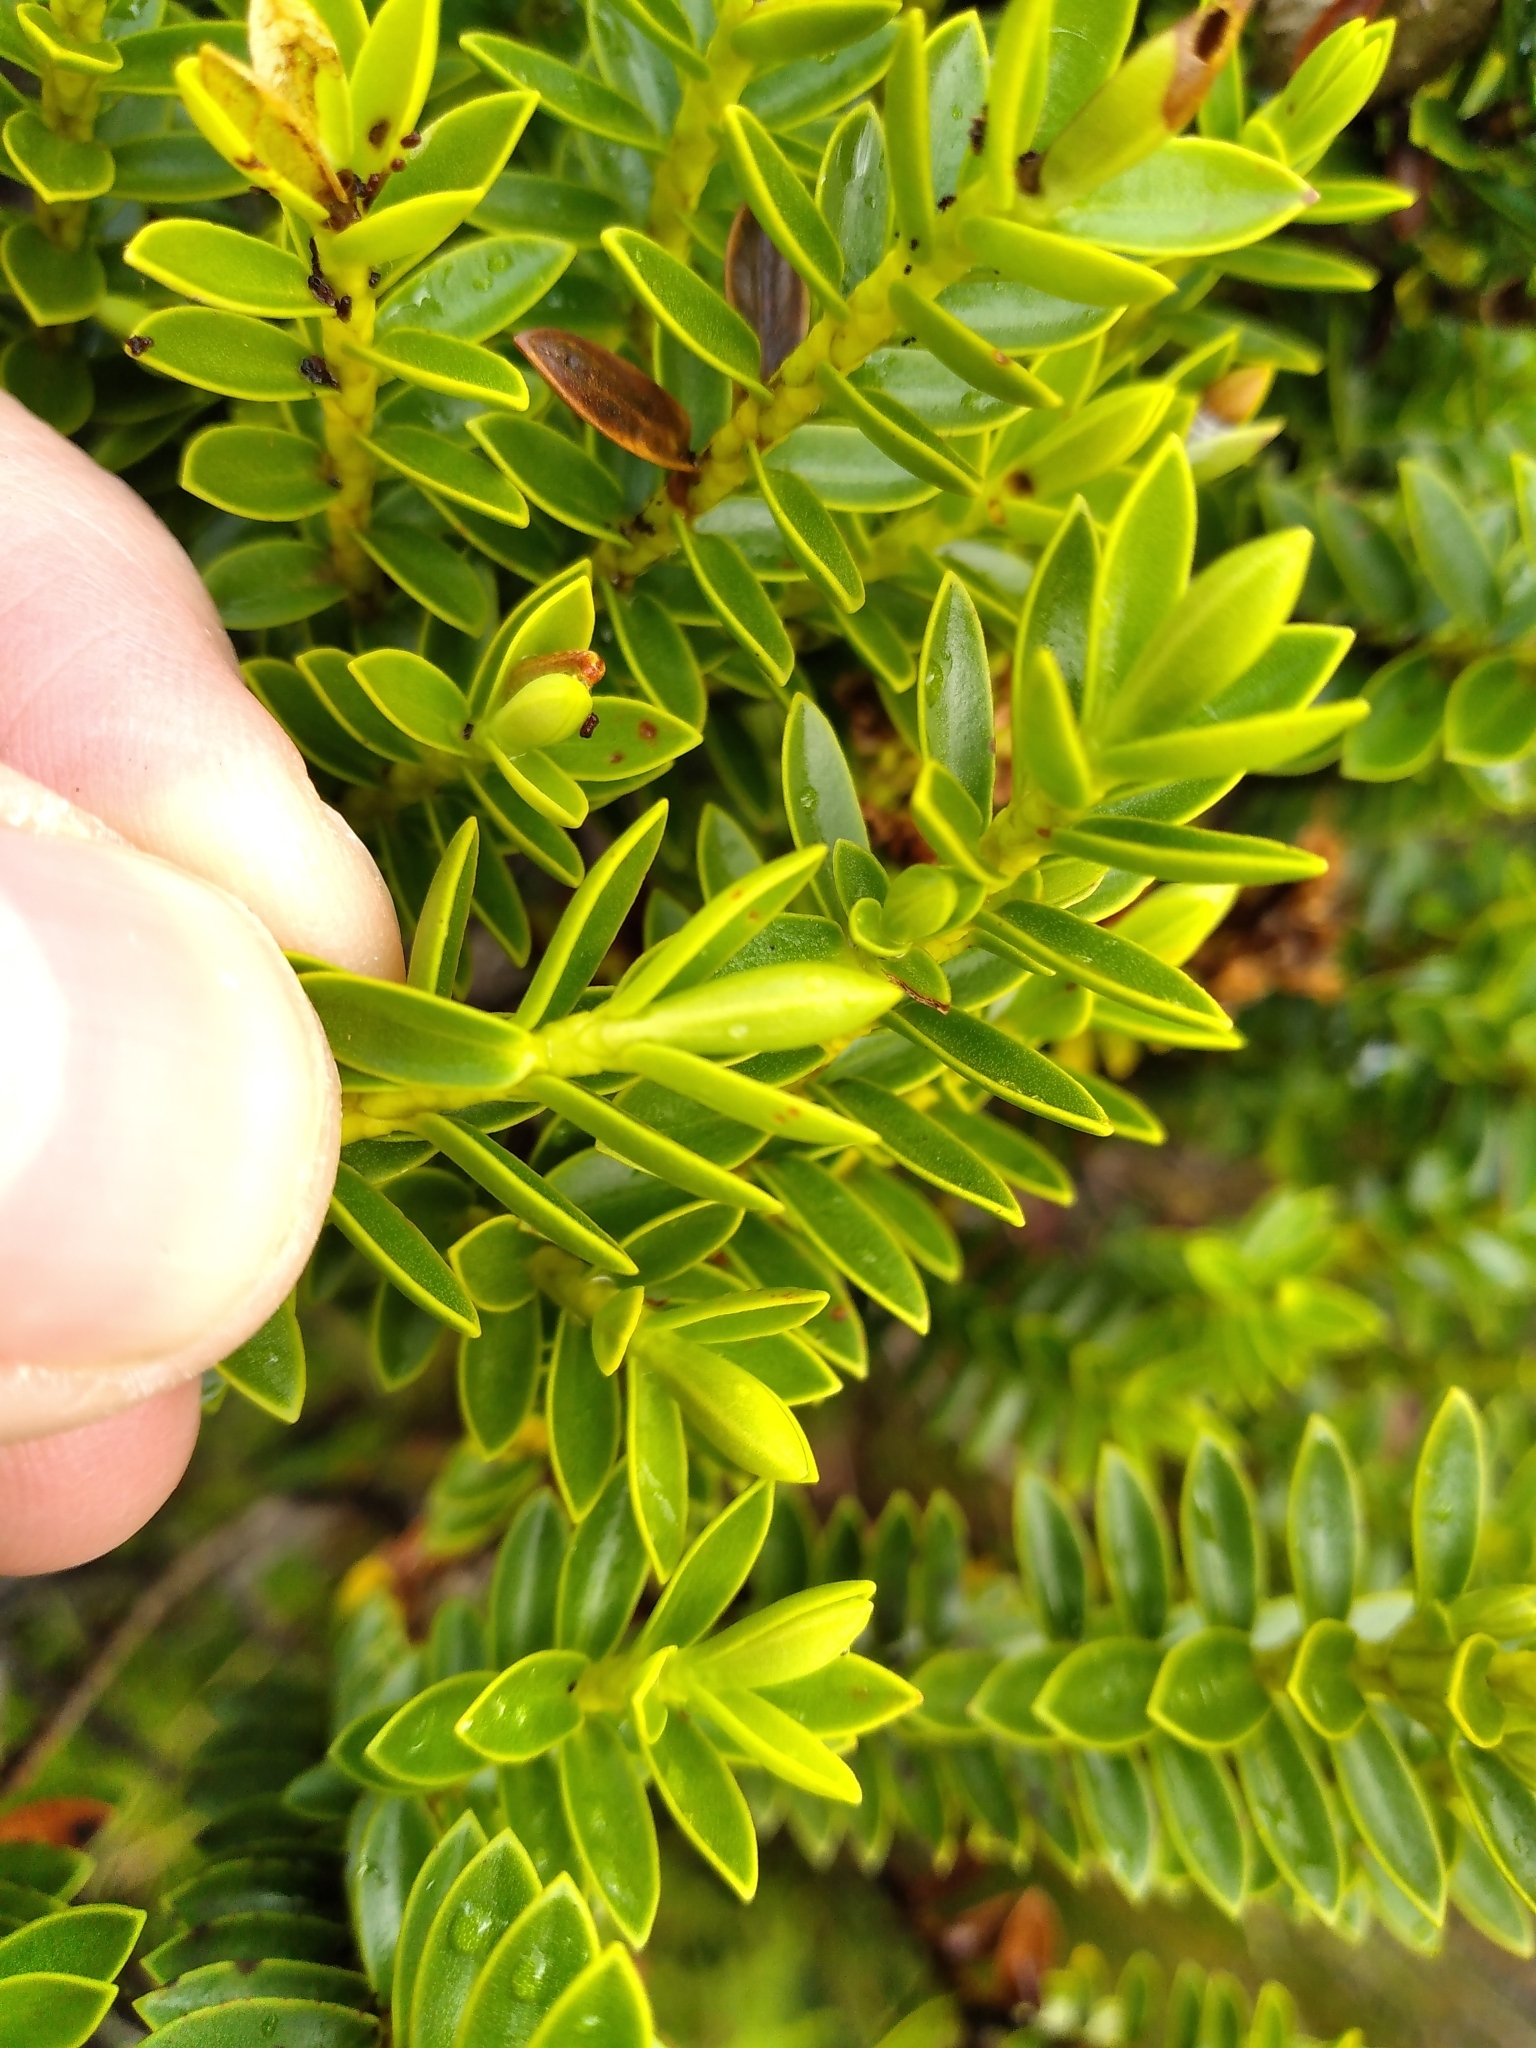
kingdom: Plantae
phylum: Tracheophyta
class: Magnoliopsida
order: Lamiales
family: Plantaginaceae
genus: Veronica
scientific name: Veronica odora
